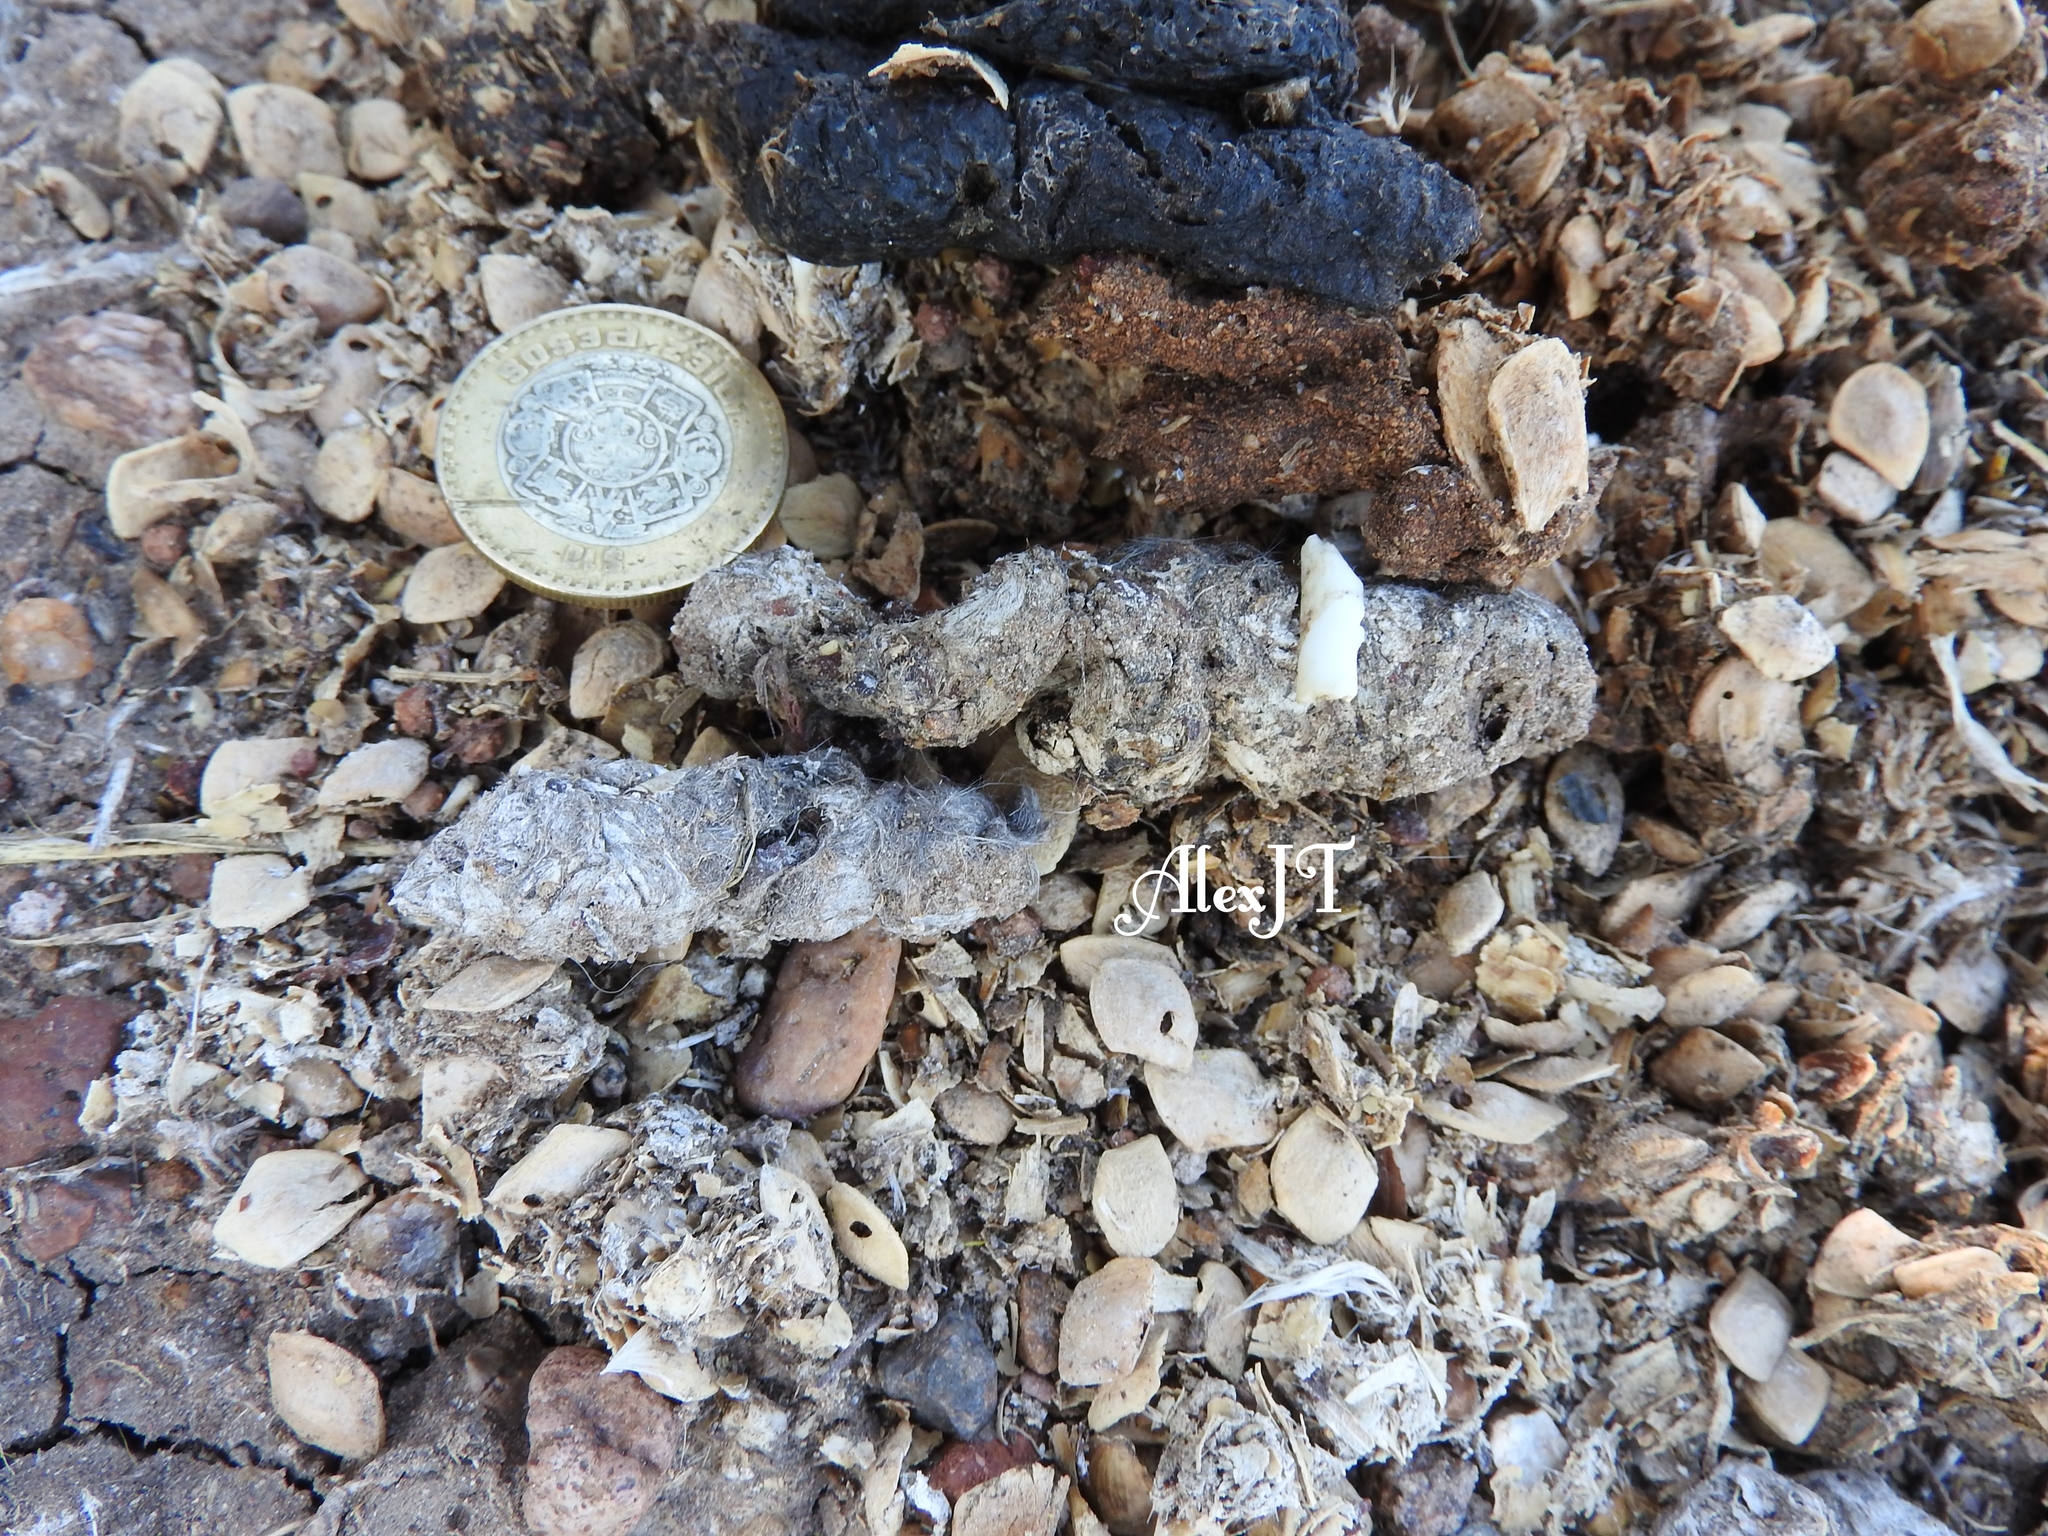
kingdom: Animalia
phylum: Chordata
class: Mammalia
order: Carnivora
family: Procyonidae
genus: Bassariscus
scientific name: Bassariscus astutus
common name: Ringtail
